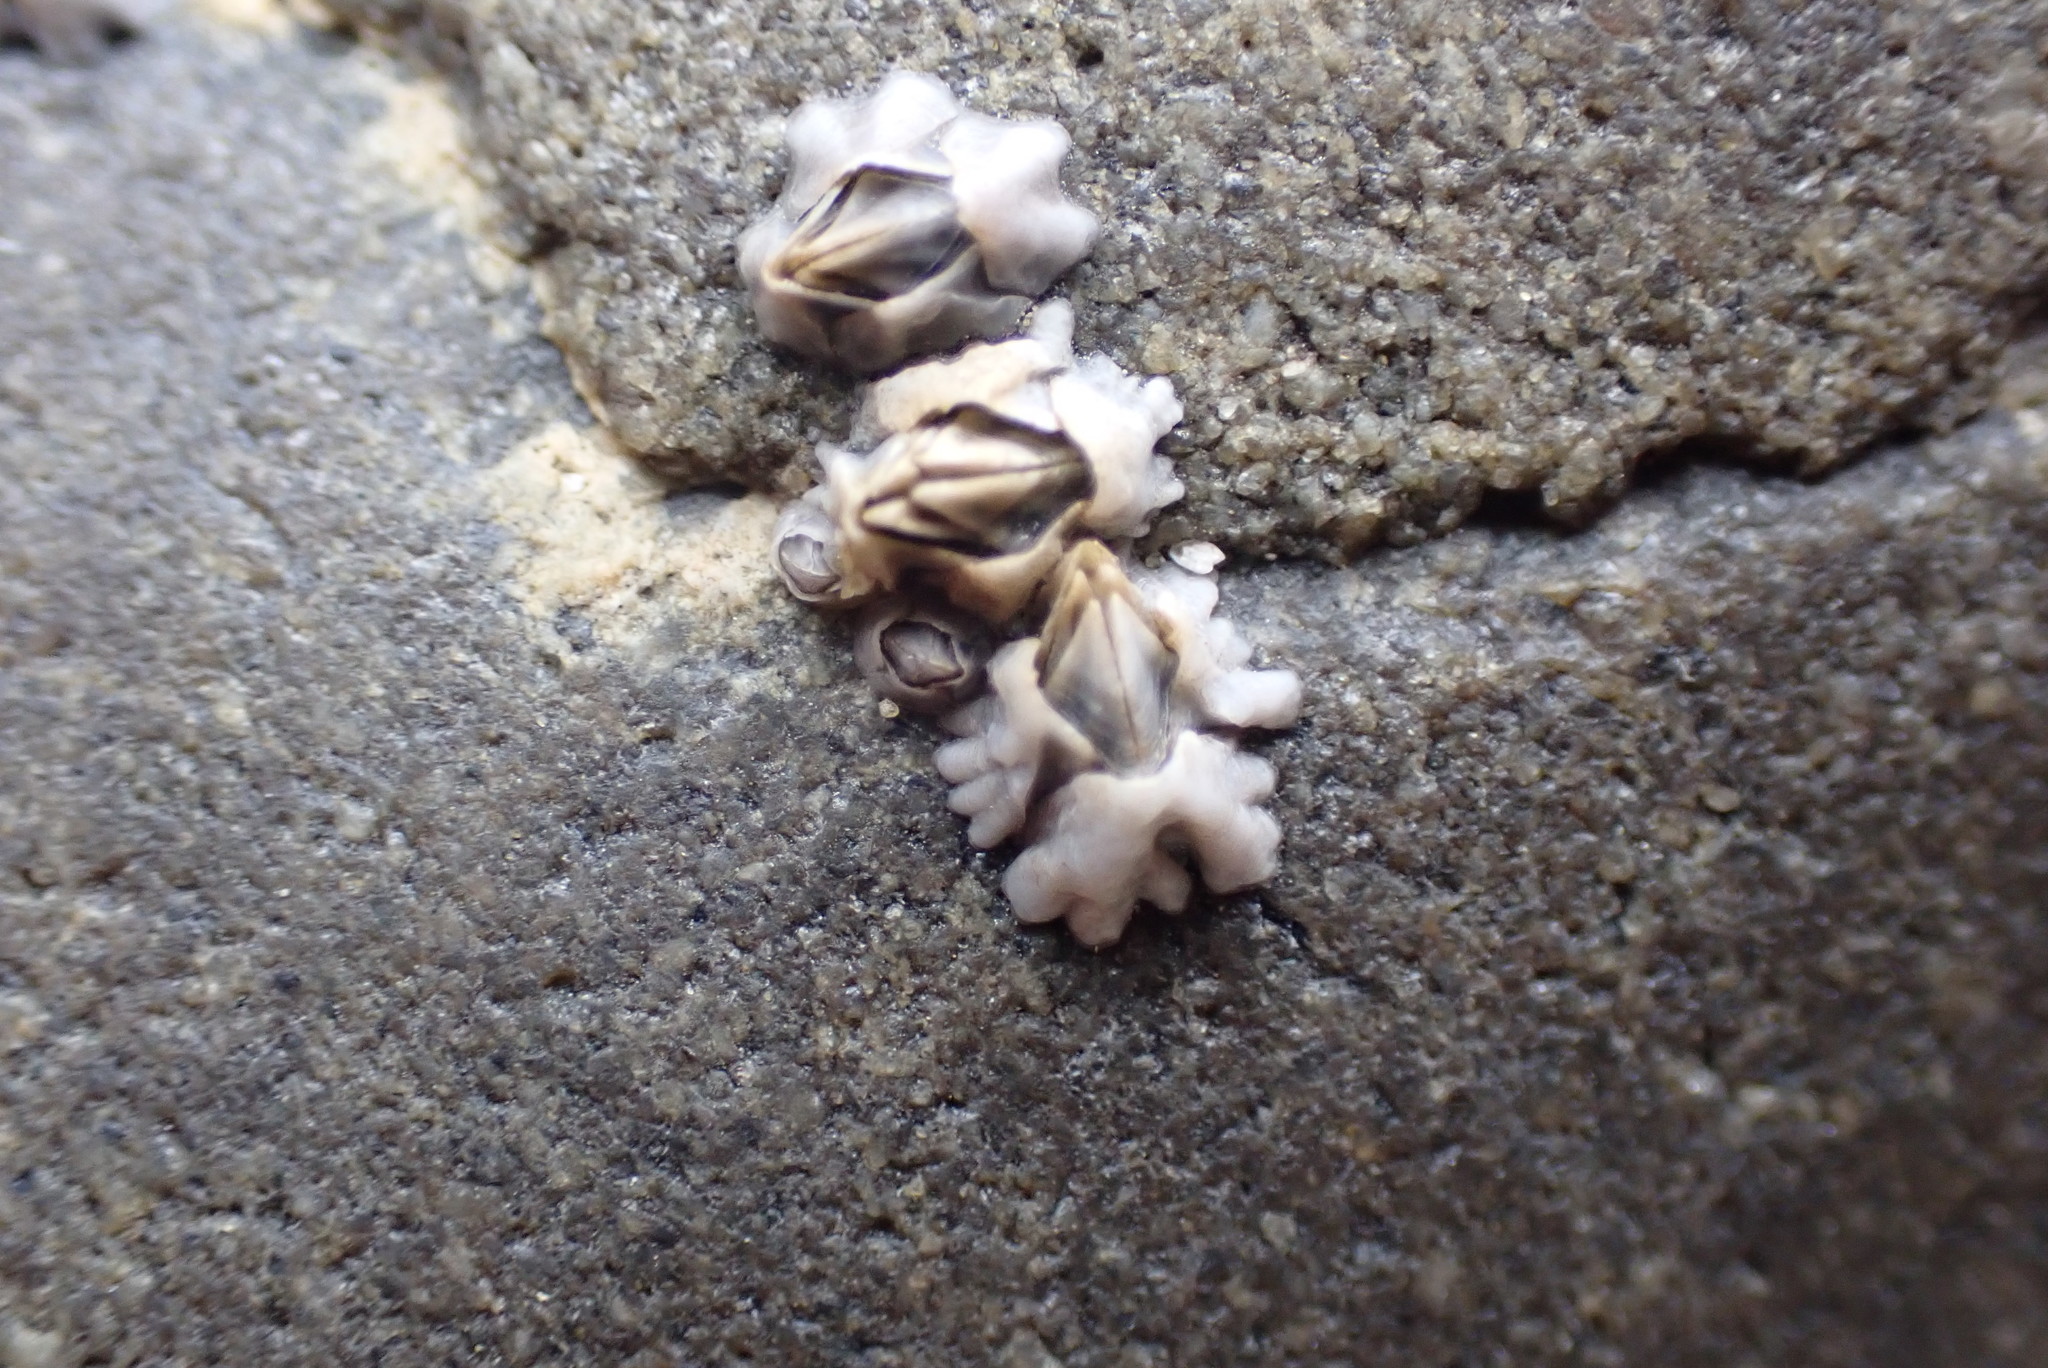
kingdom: Animalia
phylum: Arthropoda
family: Elminiidae
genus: Austrominius
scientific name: Austrominius modestus
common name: Australasian barnacle
